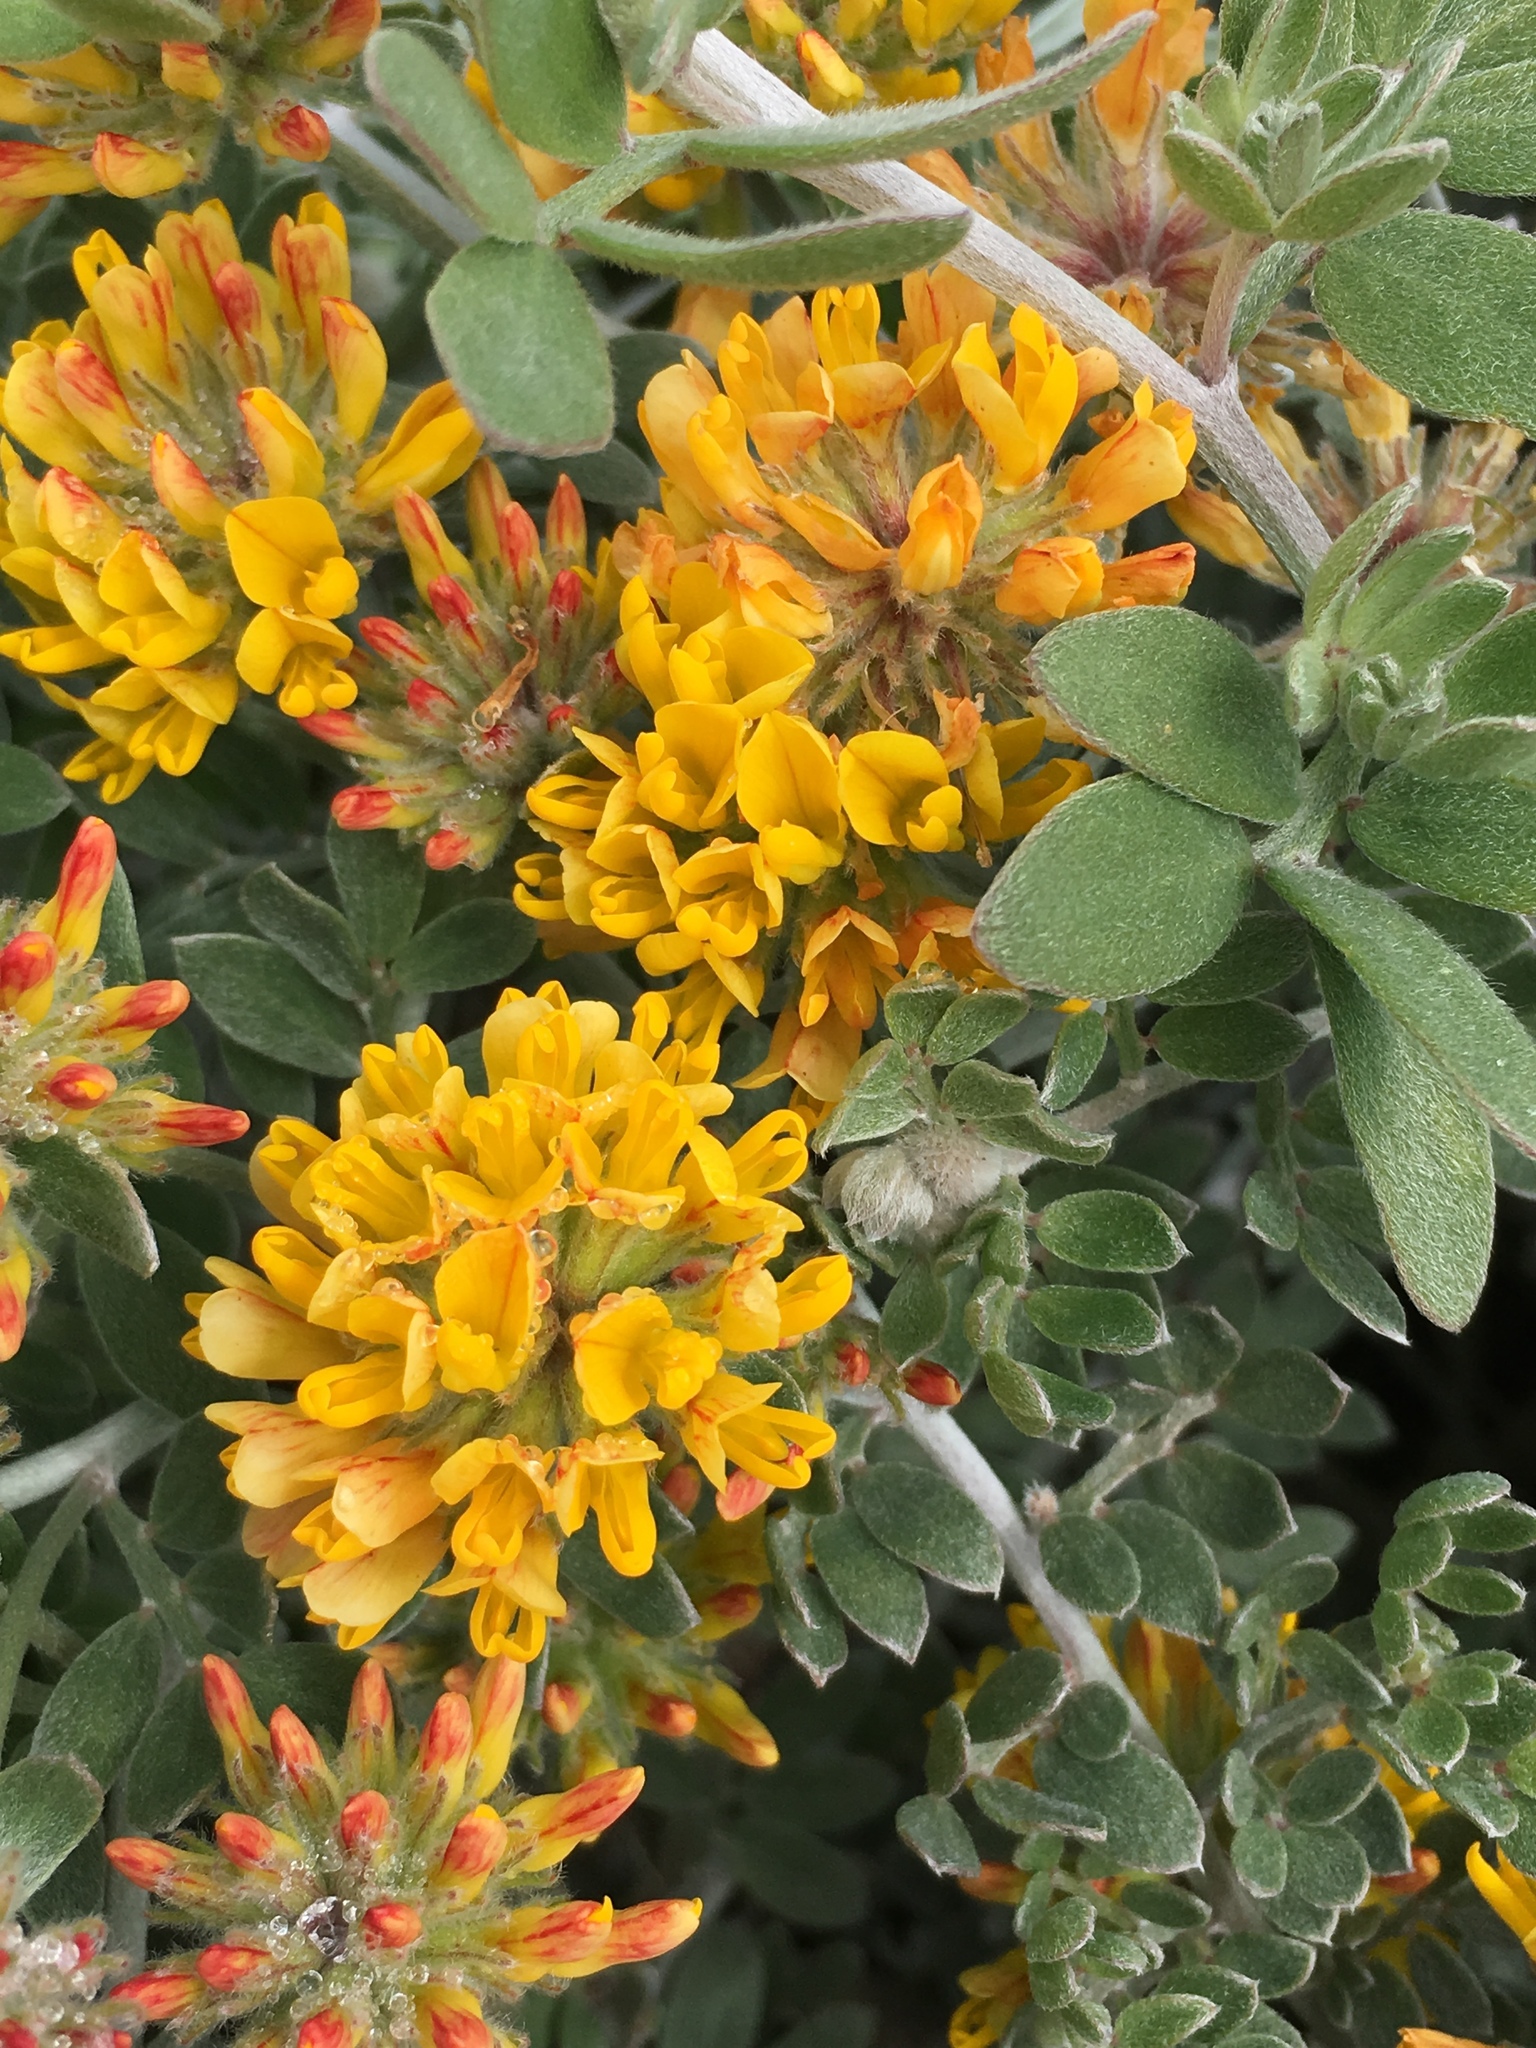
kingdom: Plantae
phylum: Tracheophyta
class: Magnoliopsida
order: Fabales
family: Fabaceae
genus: Acmispon
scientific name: Acmispon argophyllus
